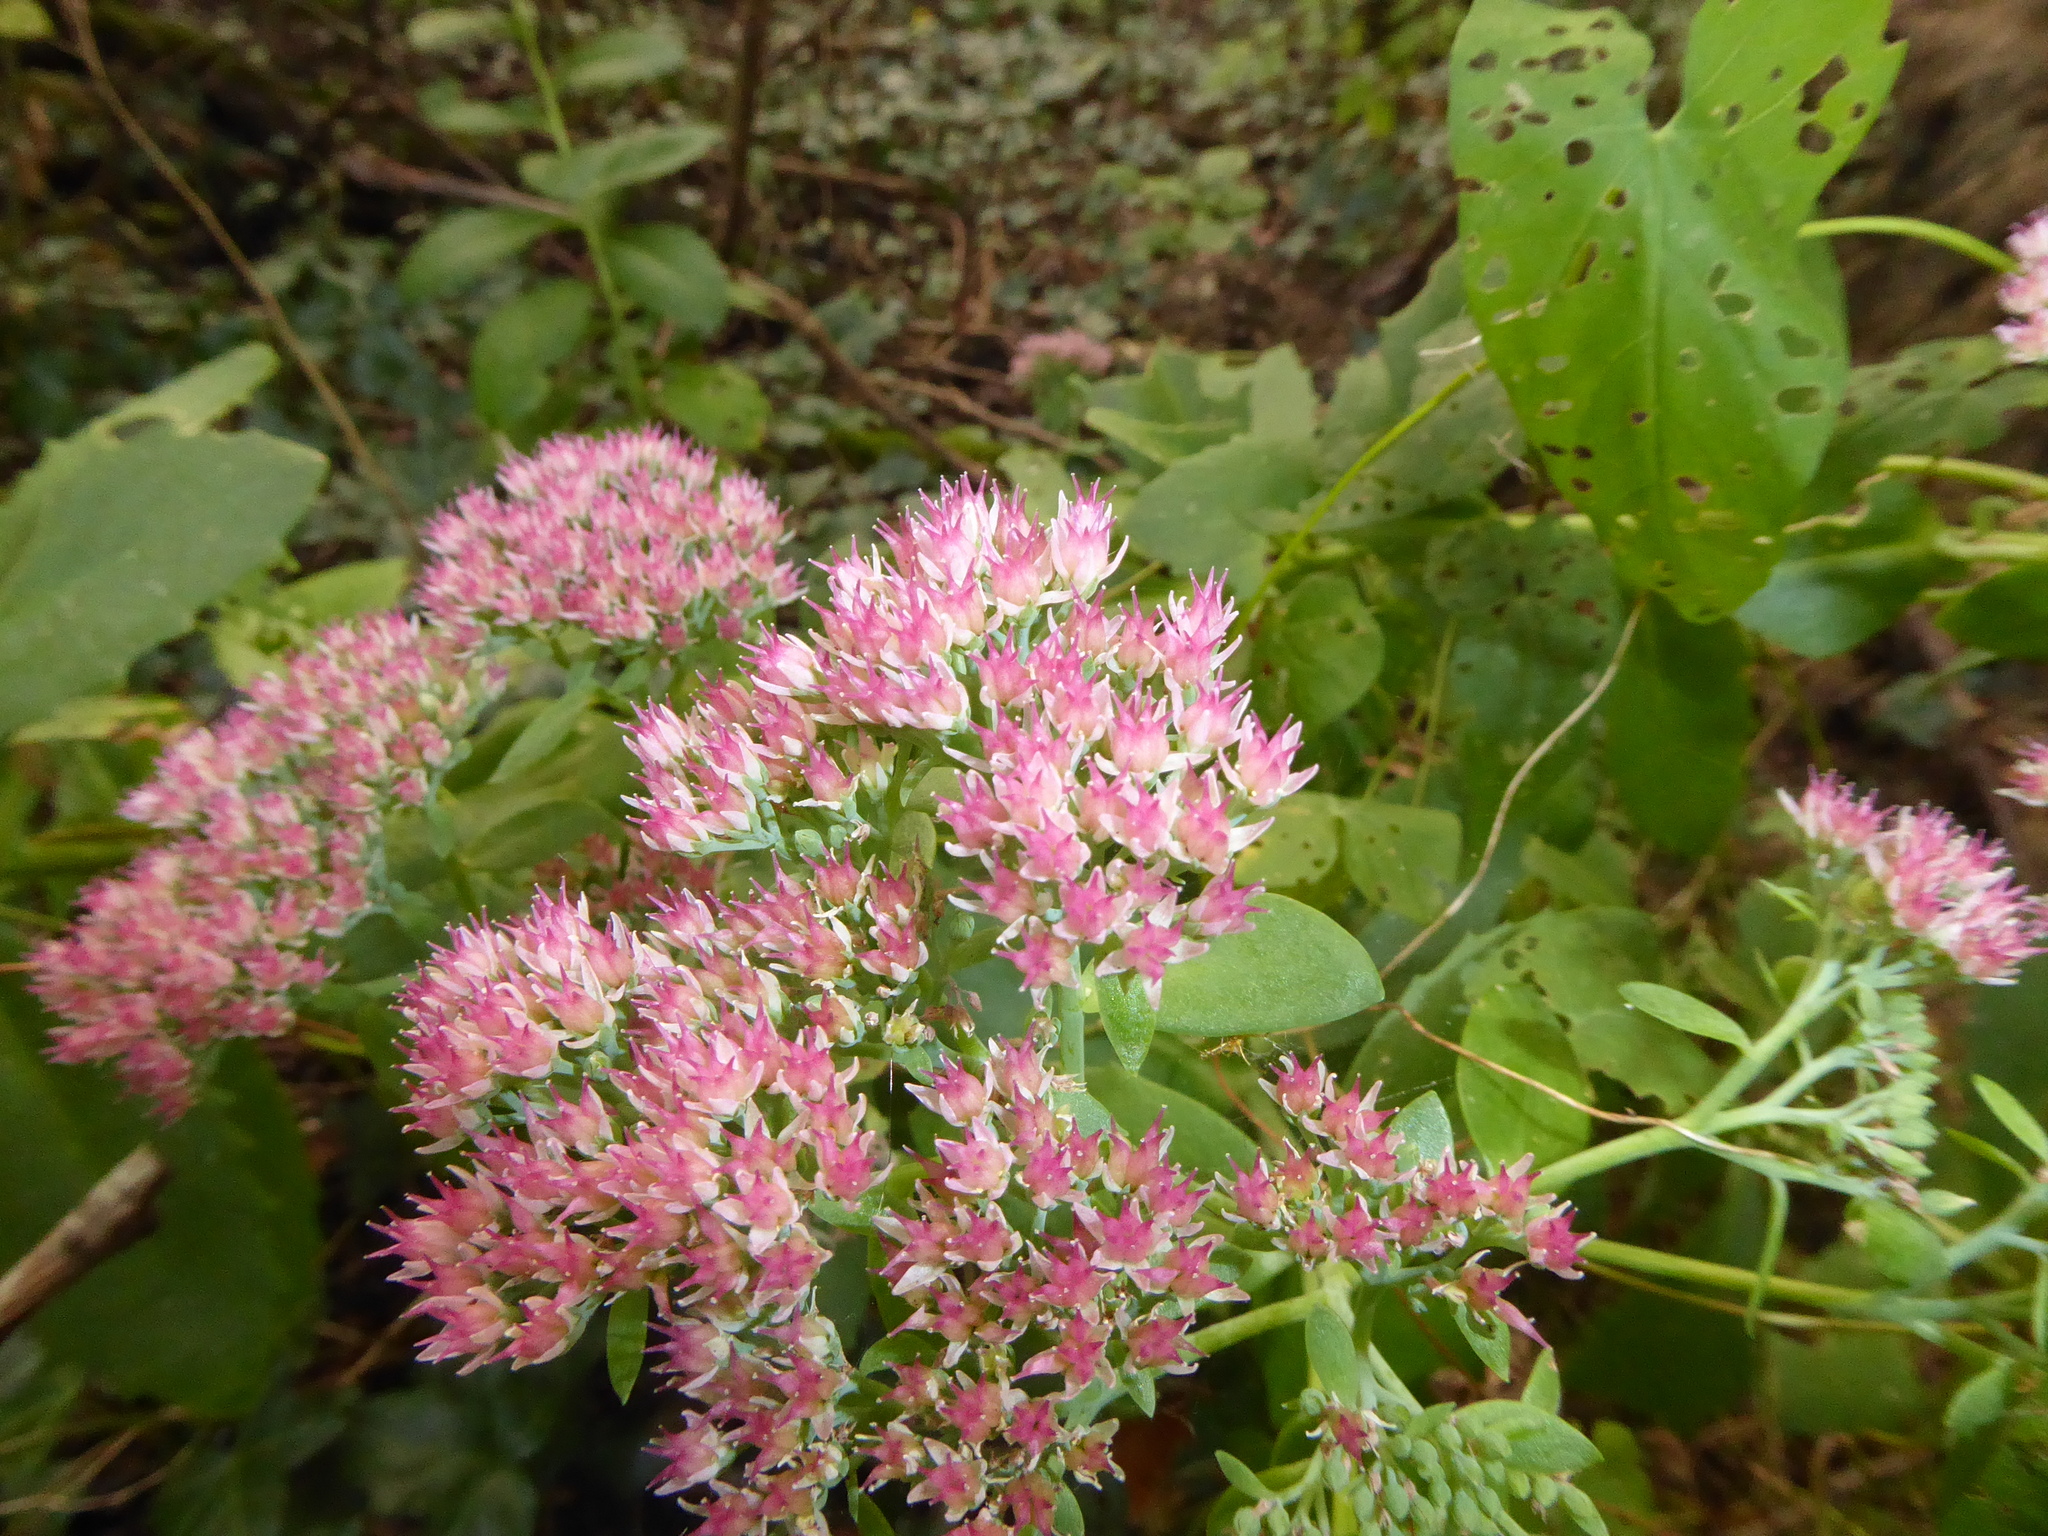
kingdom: Plantae
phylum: Tracheophyta
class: Magnoliopsida
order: Saxifragales
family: Crassulaceae
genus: Hylotelephium
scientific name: Hylotelephium
